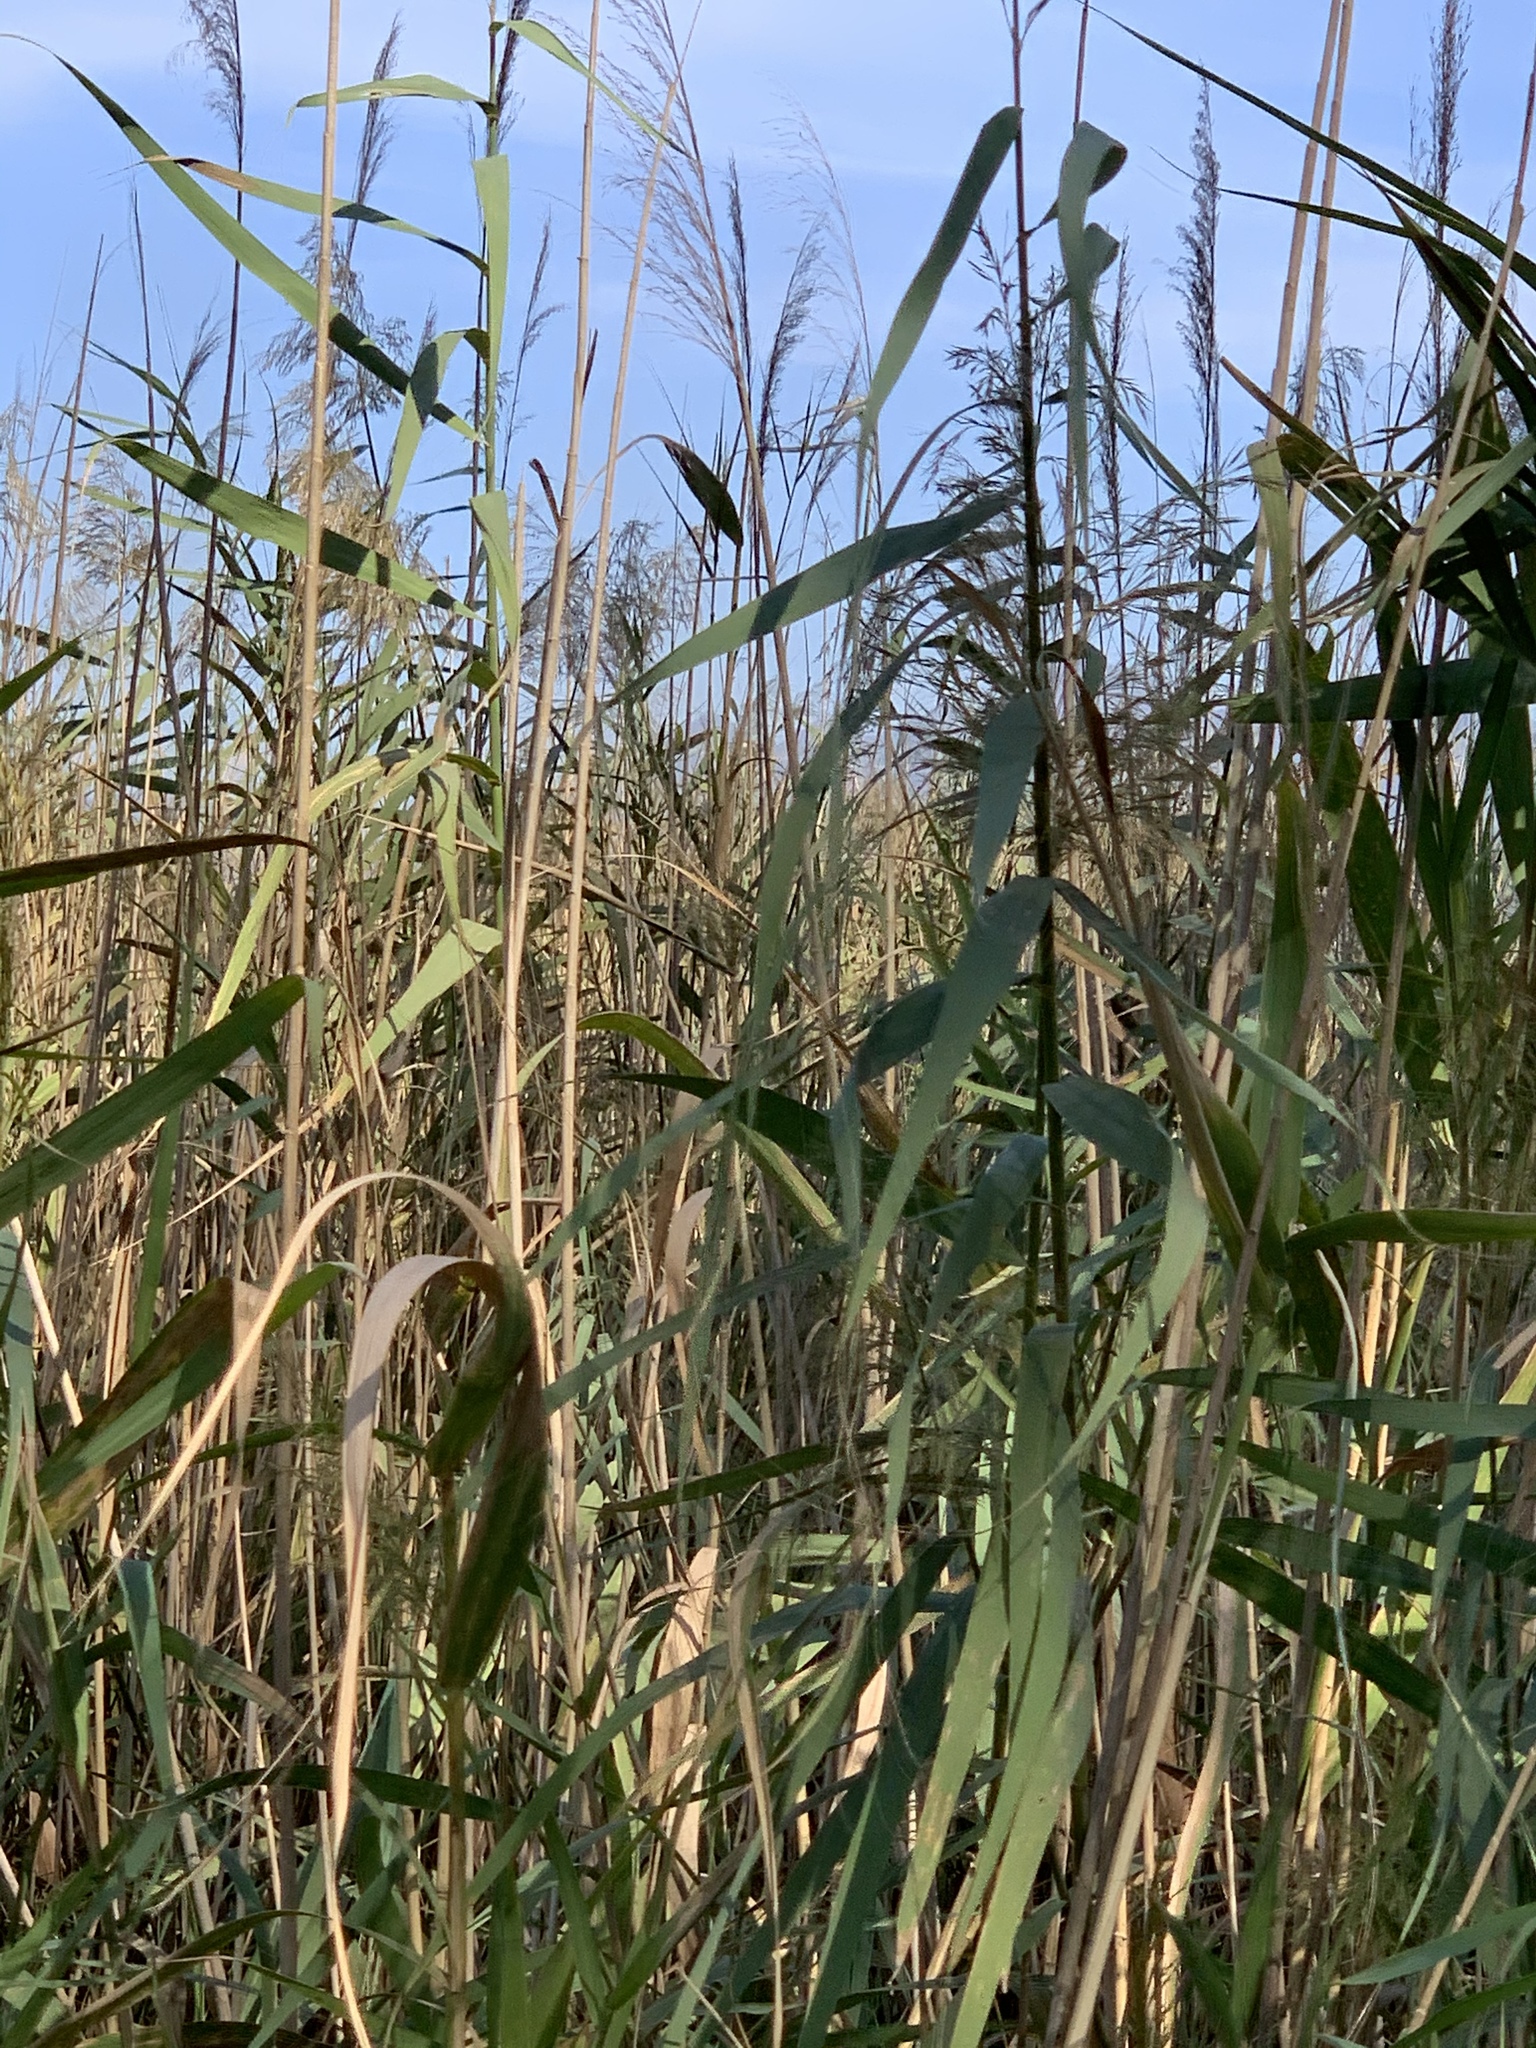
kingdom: Plantae
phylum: Tracheophyta
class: Liliopsida
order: Poales
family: Poaceae
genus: Phragmites
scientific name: Phragmites australis
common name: Common reed
